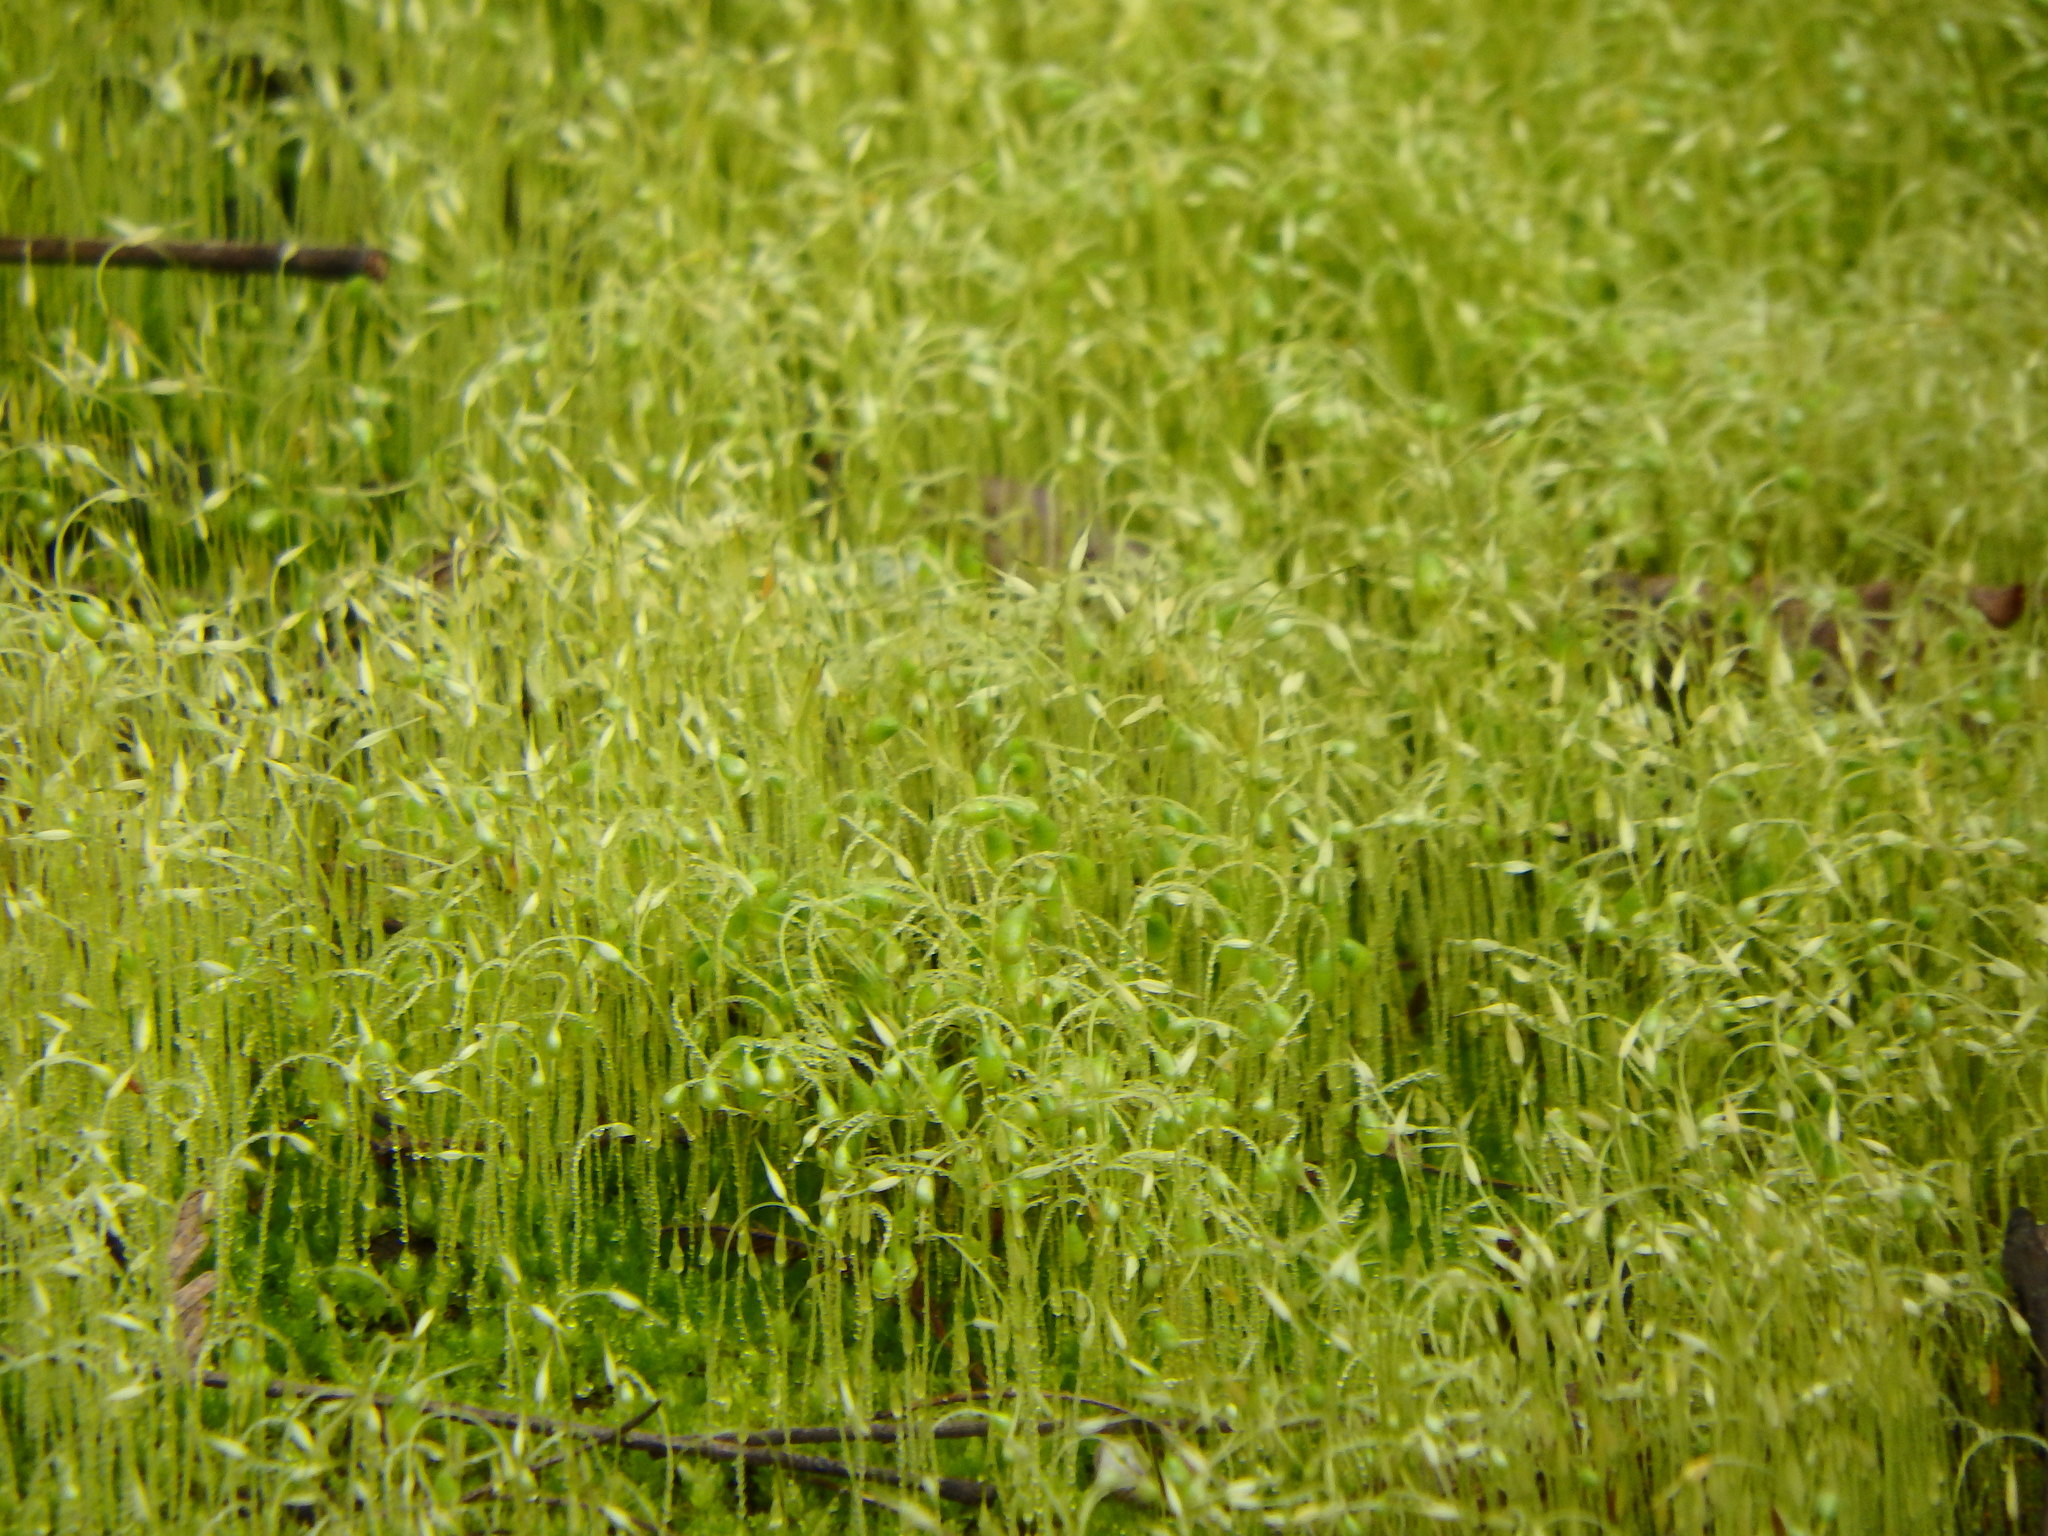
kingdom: Plantae
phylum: Bryophyta
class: Bryopsida
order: Funariales
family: Funariaceae
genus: Funaria
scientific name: Funaria hygrometrica
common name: Common cord moss
